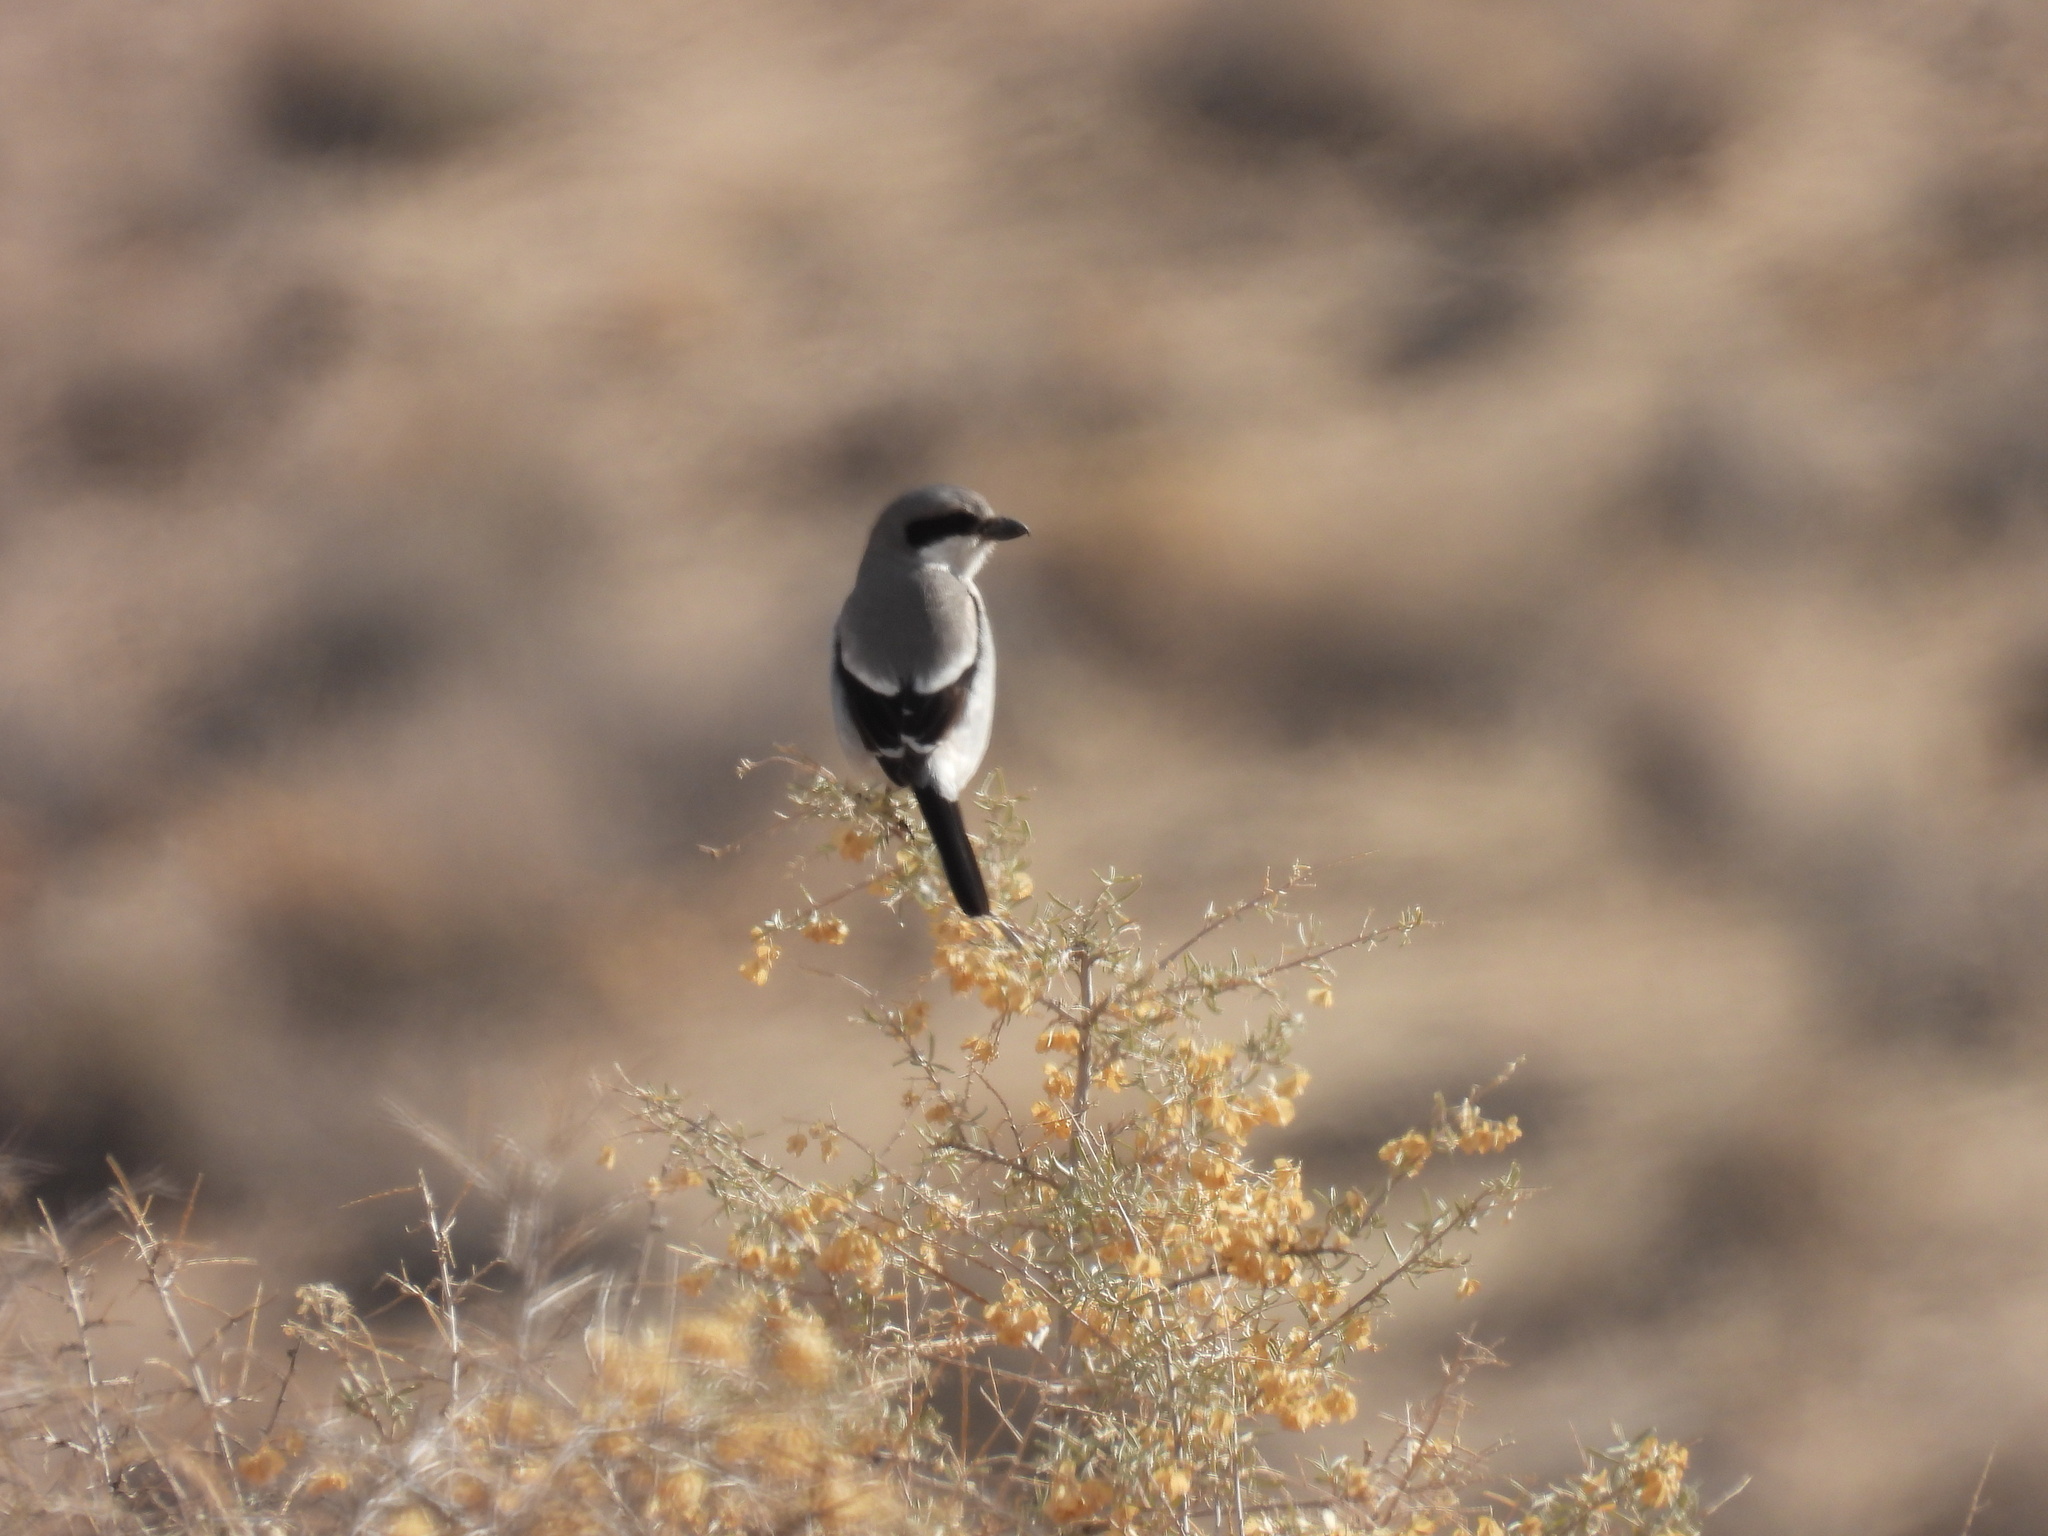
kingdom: Animalia
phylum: Chordata
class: Aves
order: Passeriformes
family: Laniidae
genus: Lanius
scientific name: Lanius ludovicianus
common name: Loggerhead shrike
